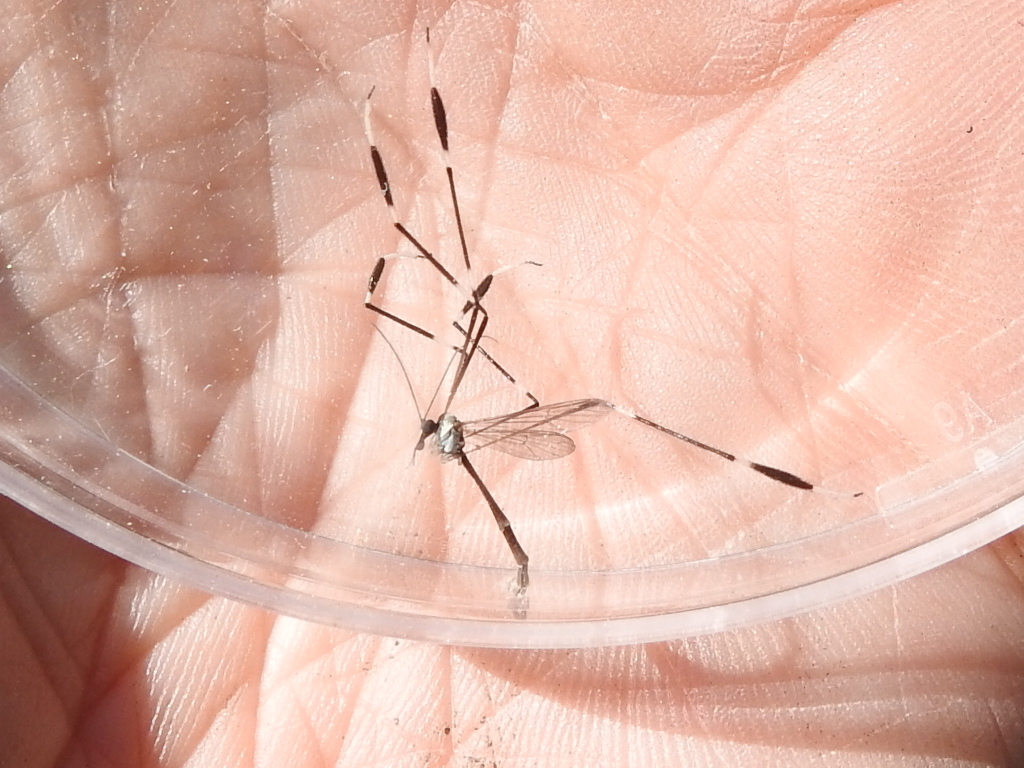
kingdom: Animalia
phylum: Arthropoda
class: Insecta
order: Diptera
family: Ptychopteridae
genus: Bittacomorpha
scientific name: Bittacomorpha clavipes
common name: Eastern phantom crane fly
